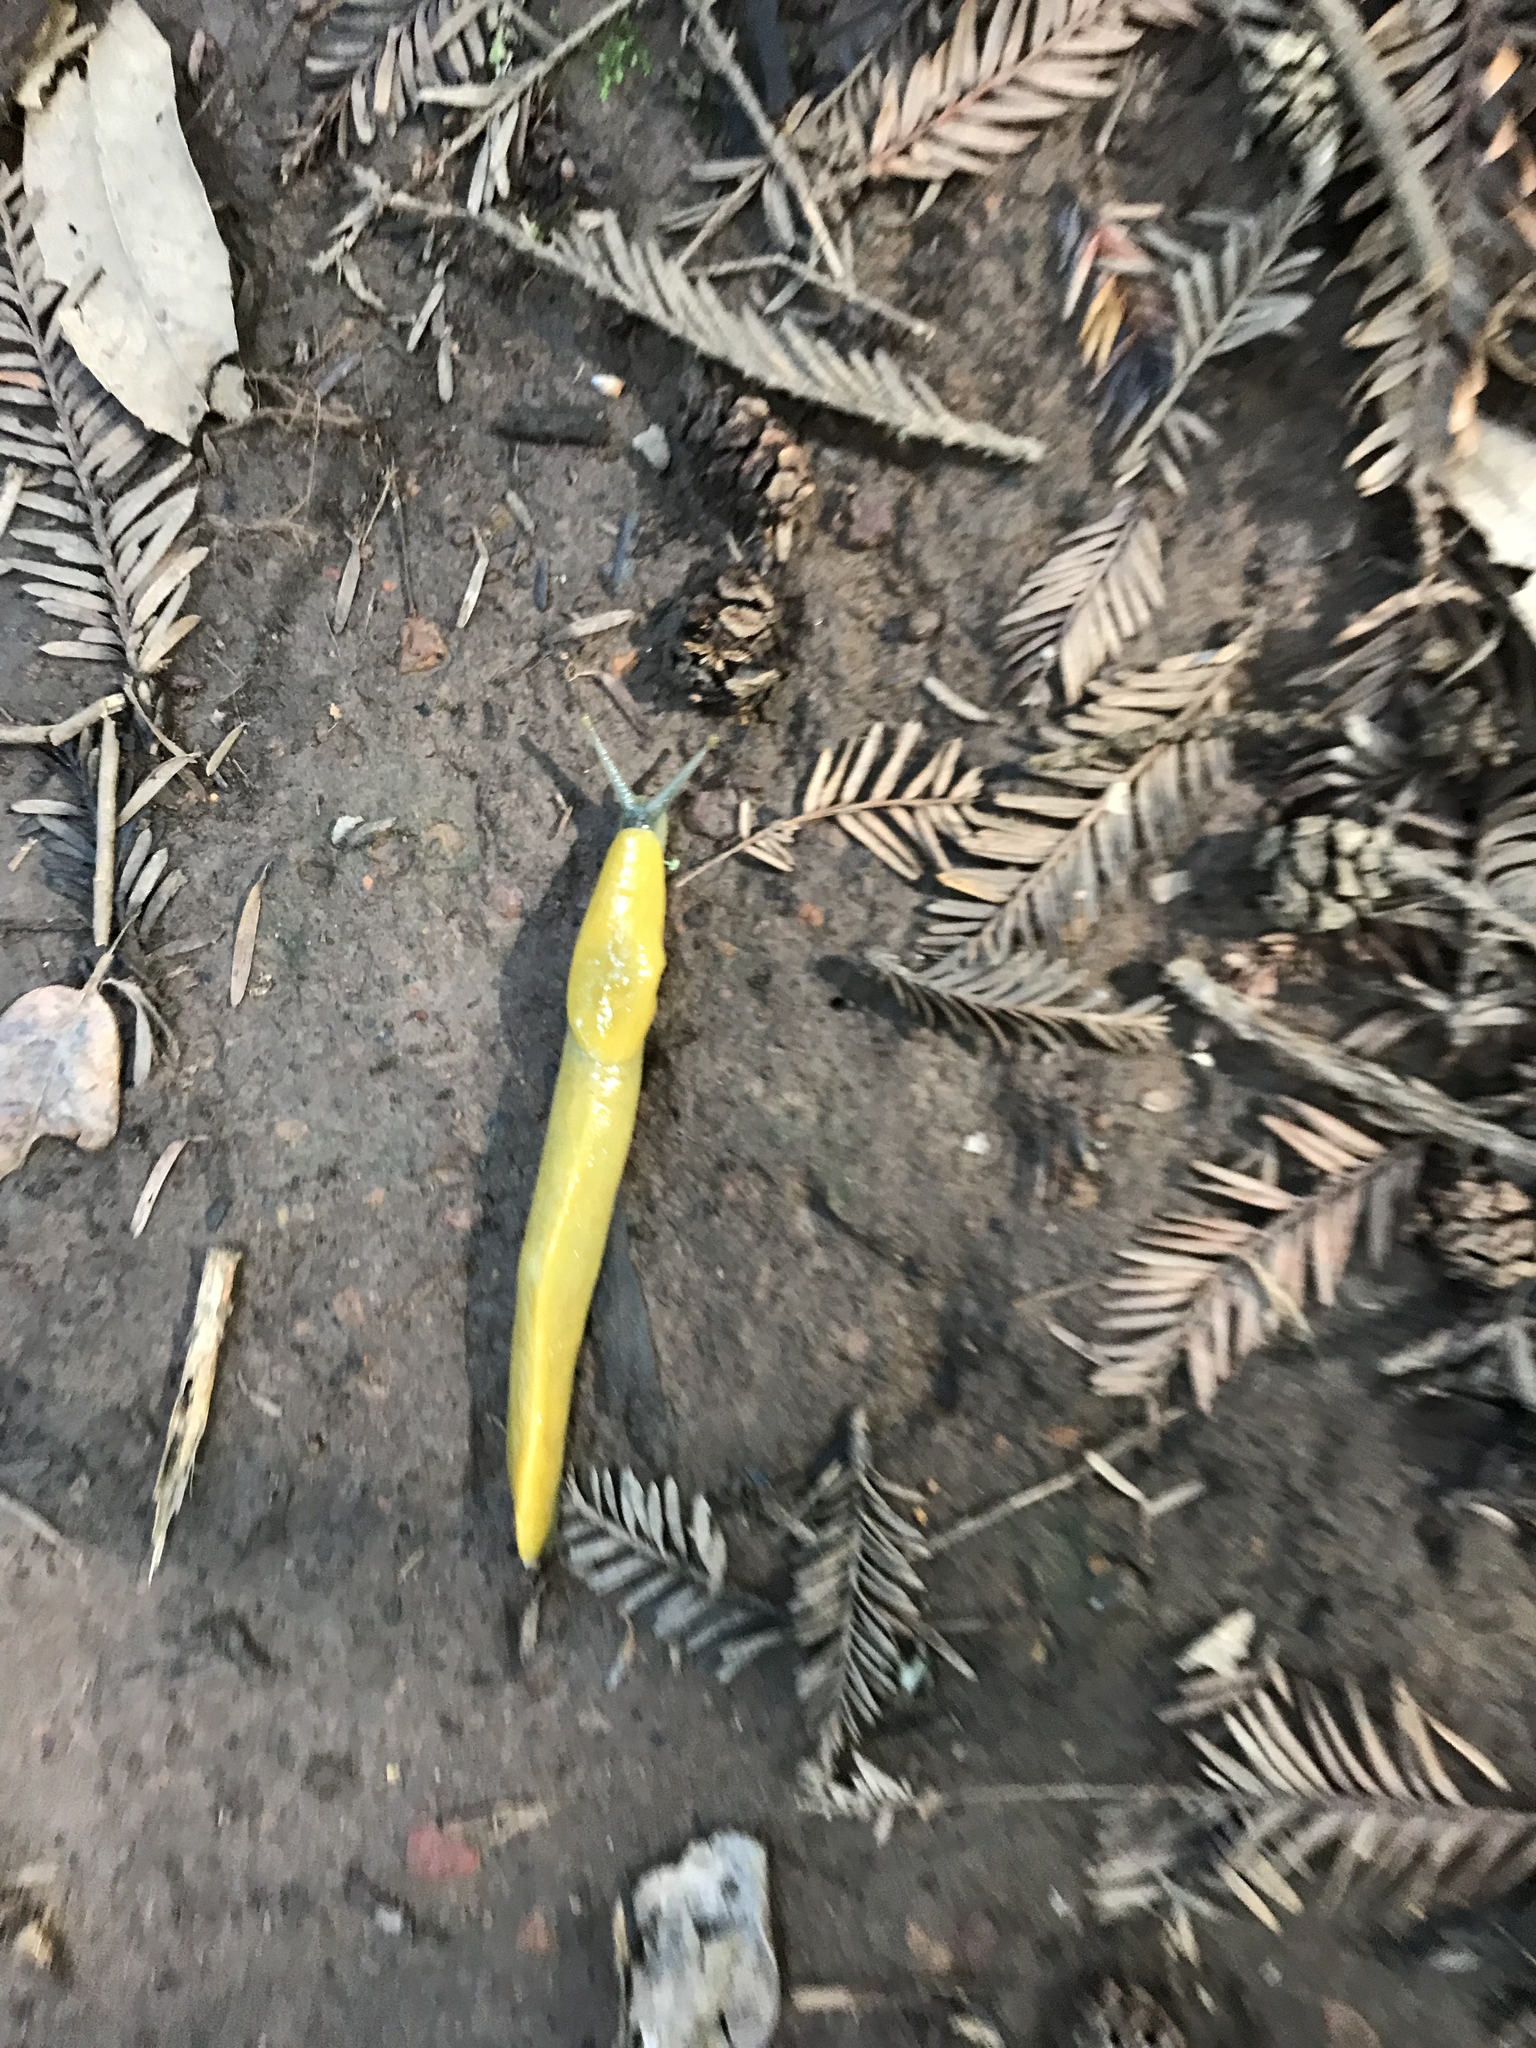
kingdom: Animalia
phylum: Mollusca
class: Gastropoda
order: Stylommatophora
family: Ariolimacidae
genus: Ariolimax
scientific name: Ariolimax
